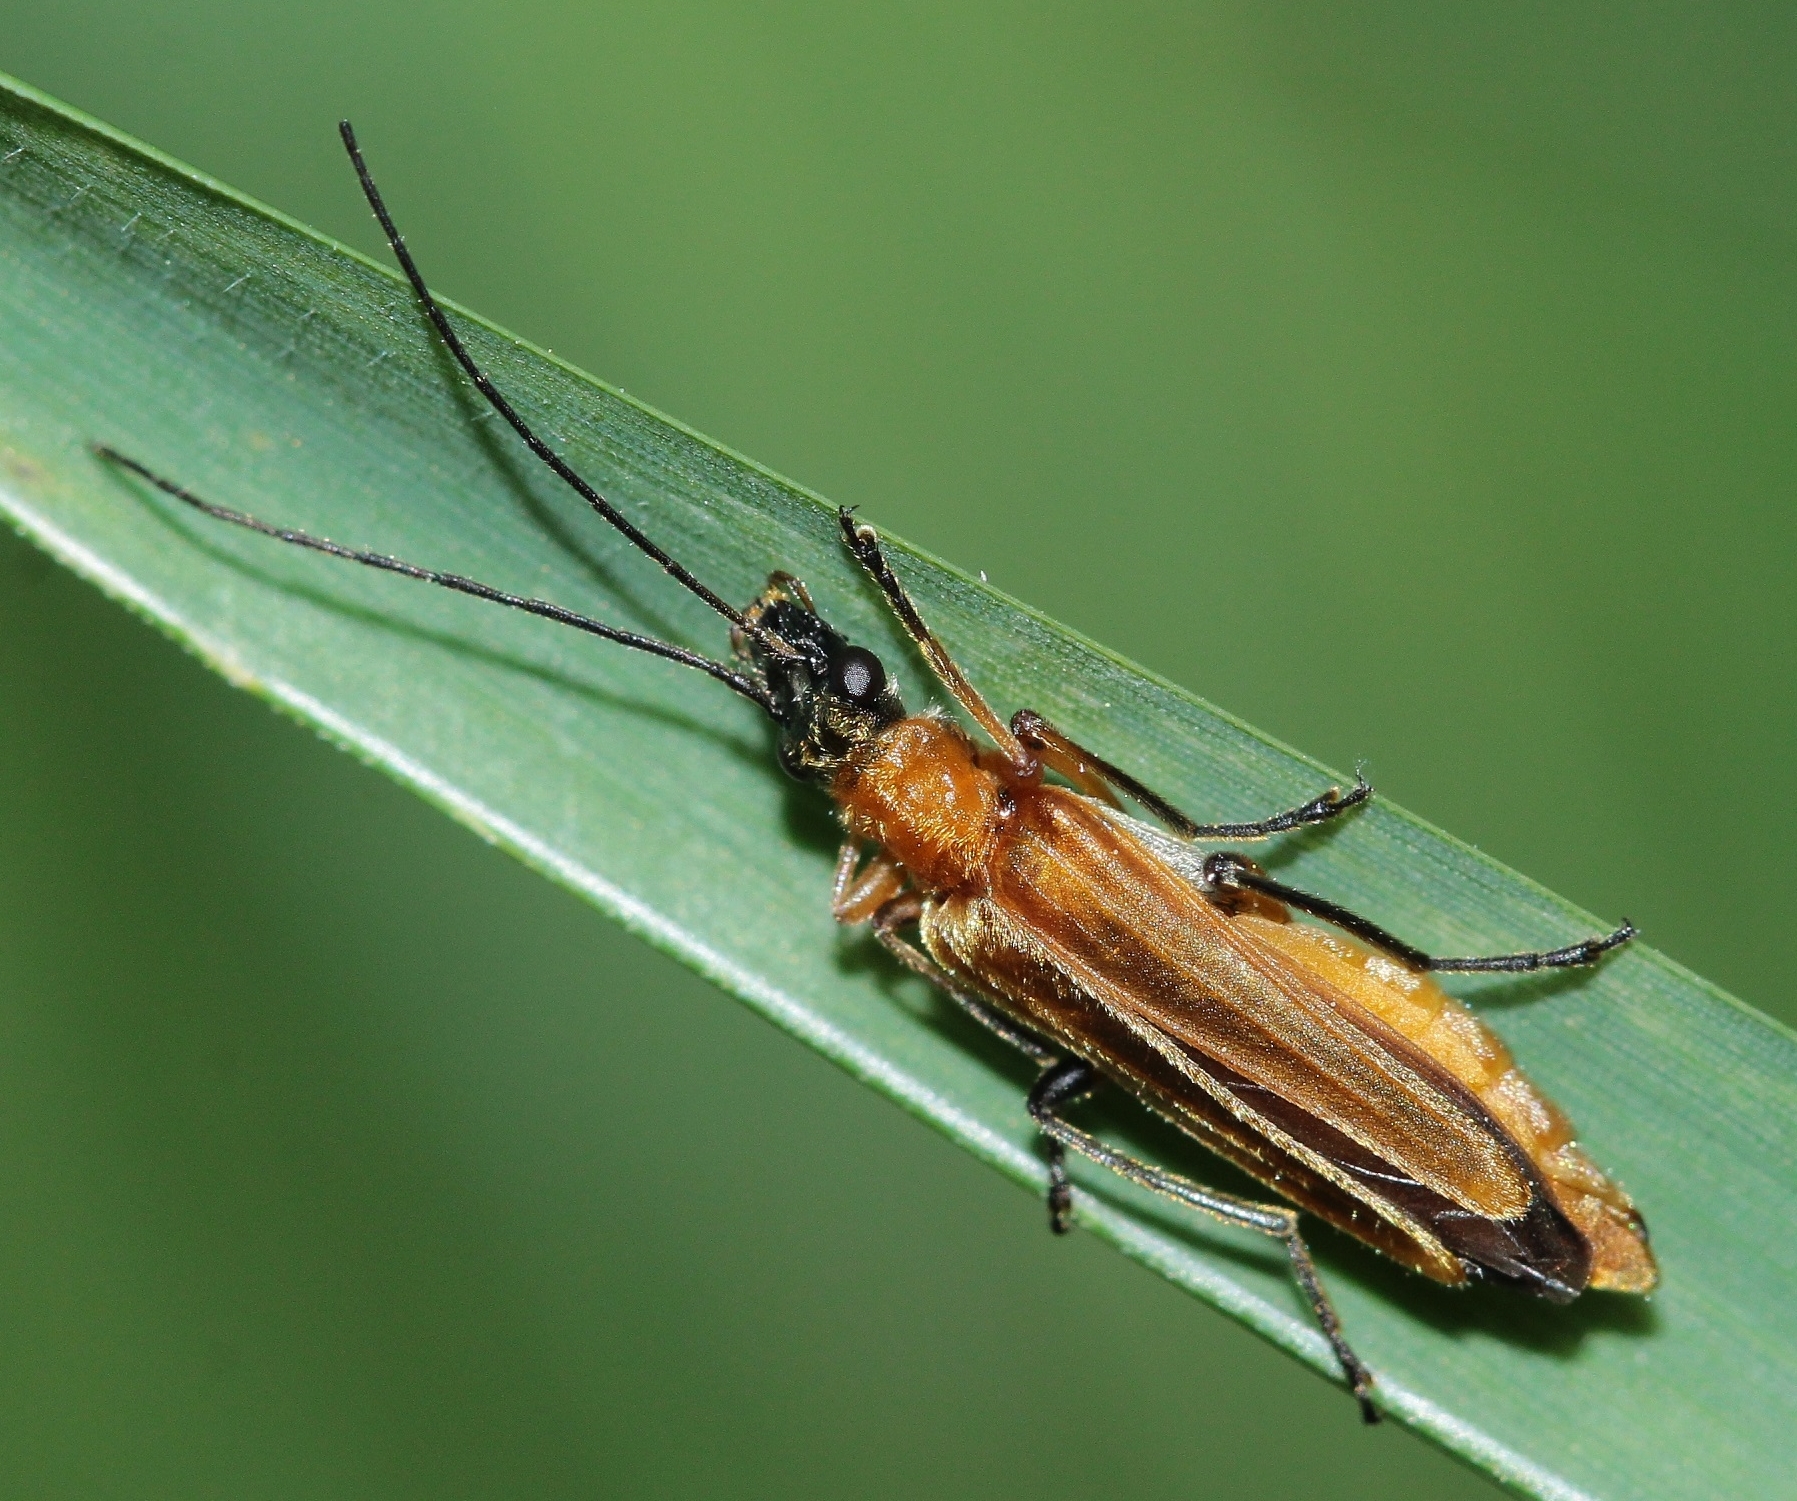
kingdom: Animalia
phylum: Arthropoda
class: Insecta
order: Coleoptera
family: Oedemeridae
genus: Oedemera
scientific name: Oedemera podagrariae
